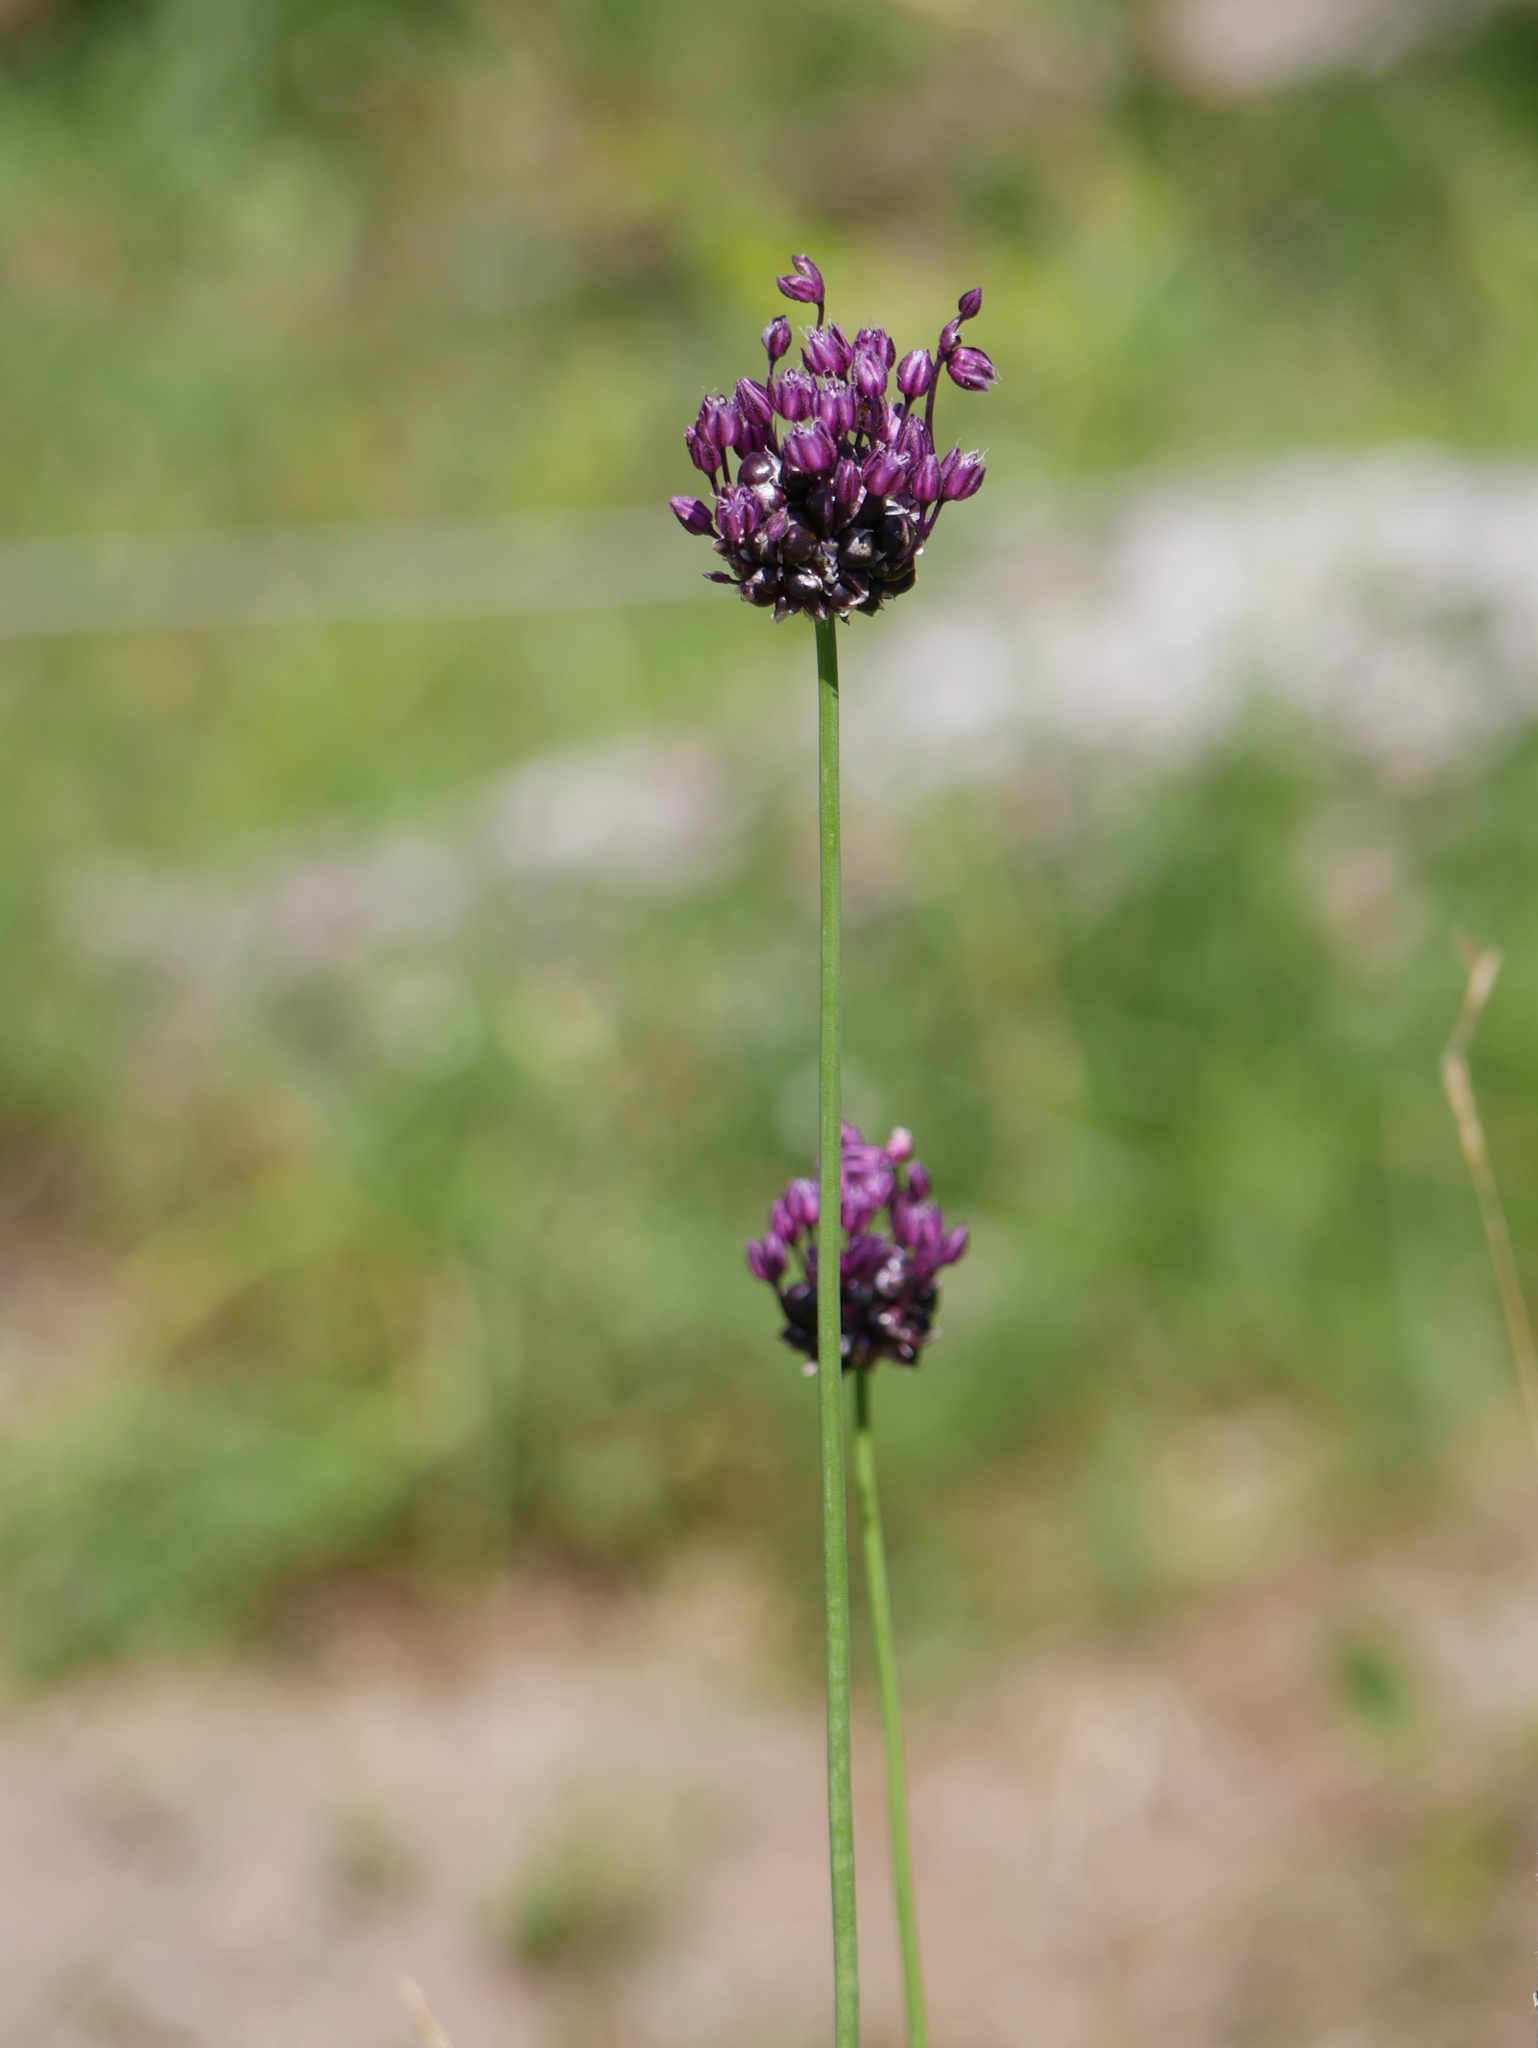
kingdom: Plantae
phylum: Tracheophyta
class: Liliopsida
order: Asparagales
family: Amaryllidaceae
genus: Allium
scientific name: Allium scorodoprasum
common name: Sand leek
